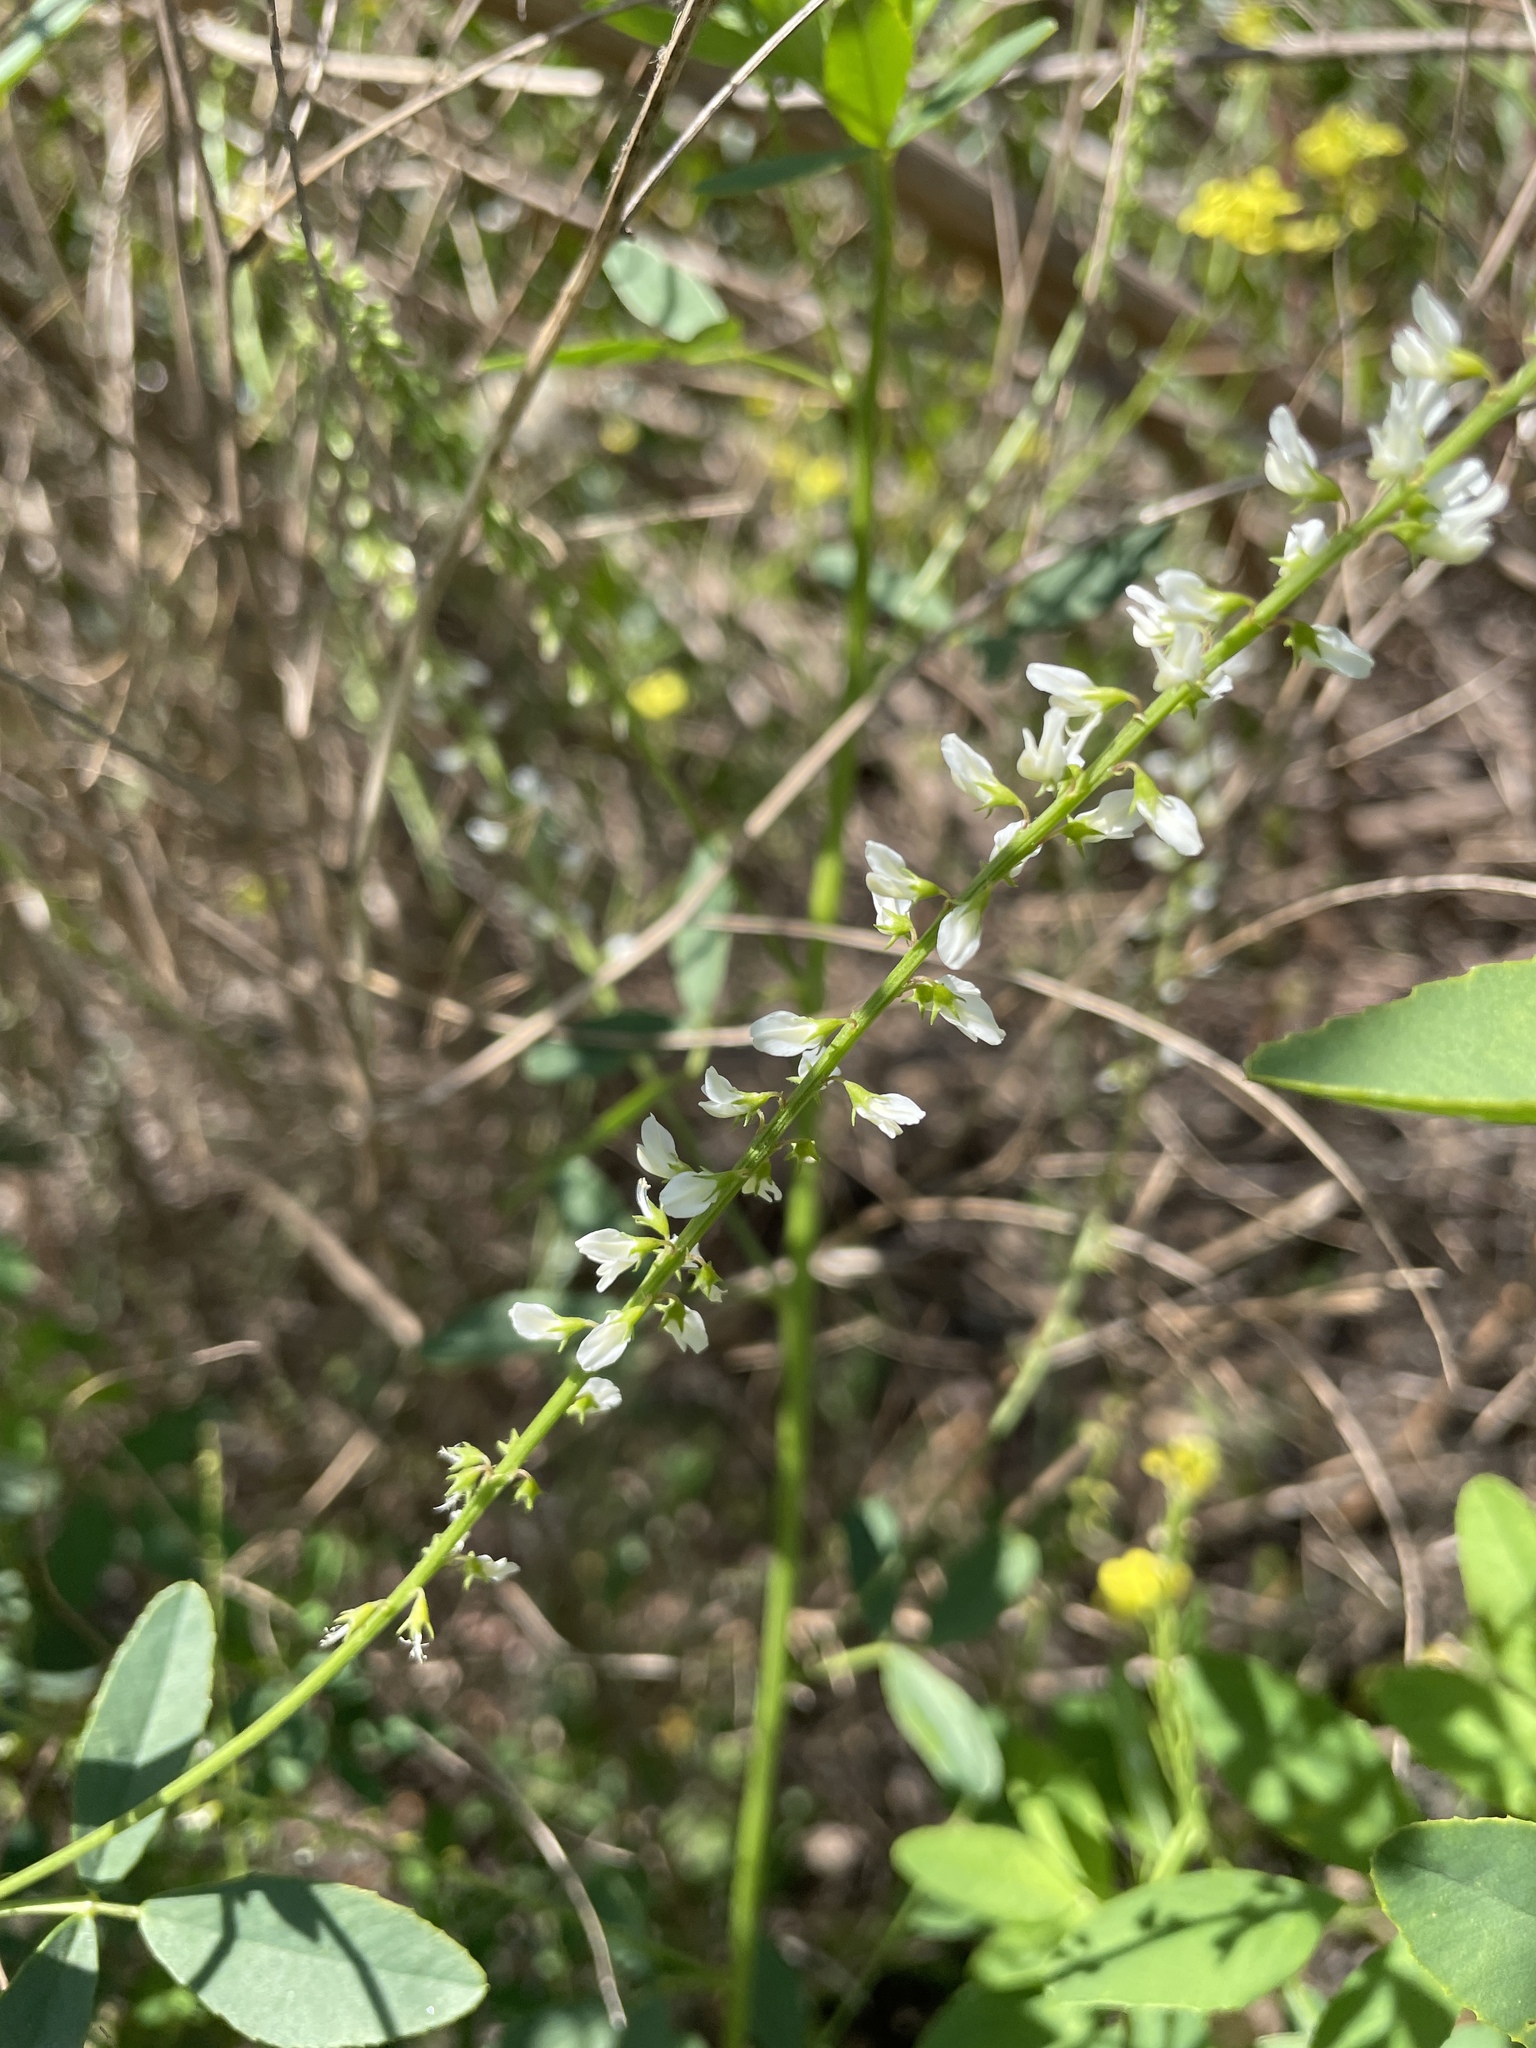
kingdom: Plantae
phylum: Tracheophyta
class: Magnoliopsida
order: Fabales
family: Fabaceae
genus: Melilotus
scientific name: Melilotus albus
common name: White melilot
